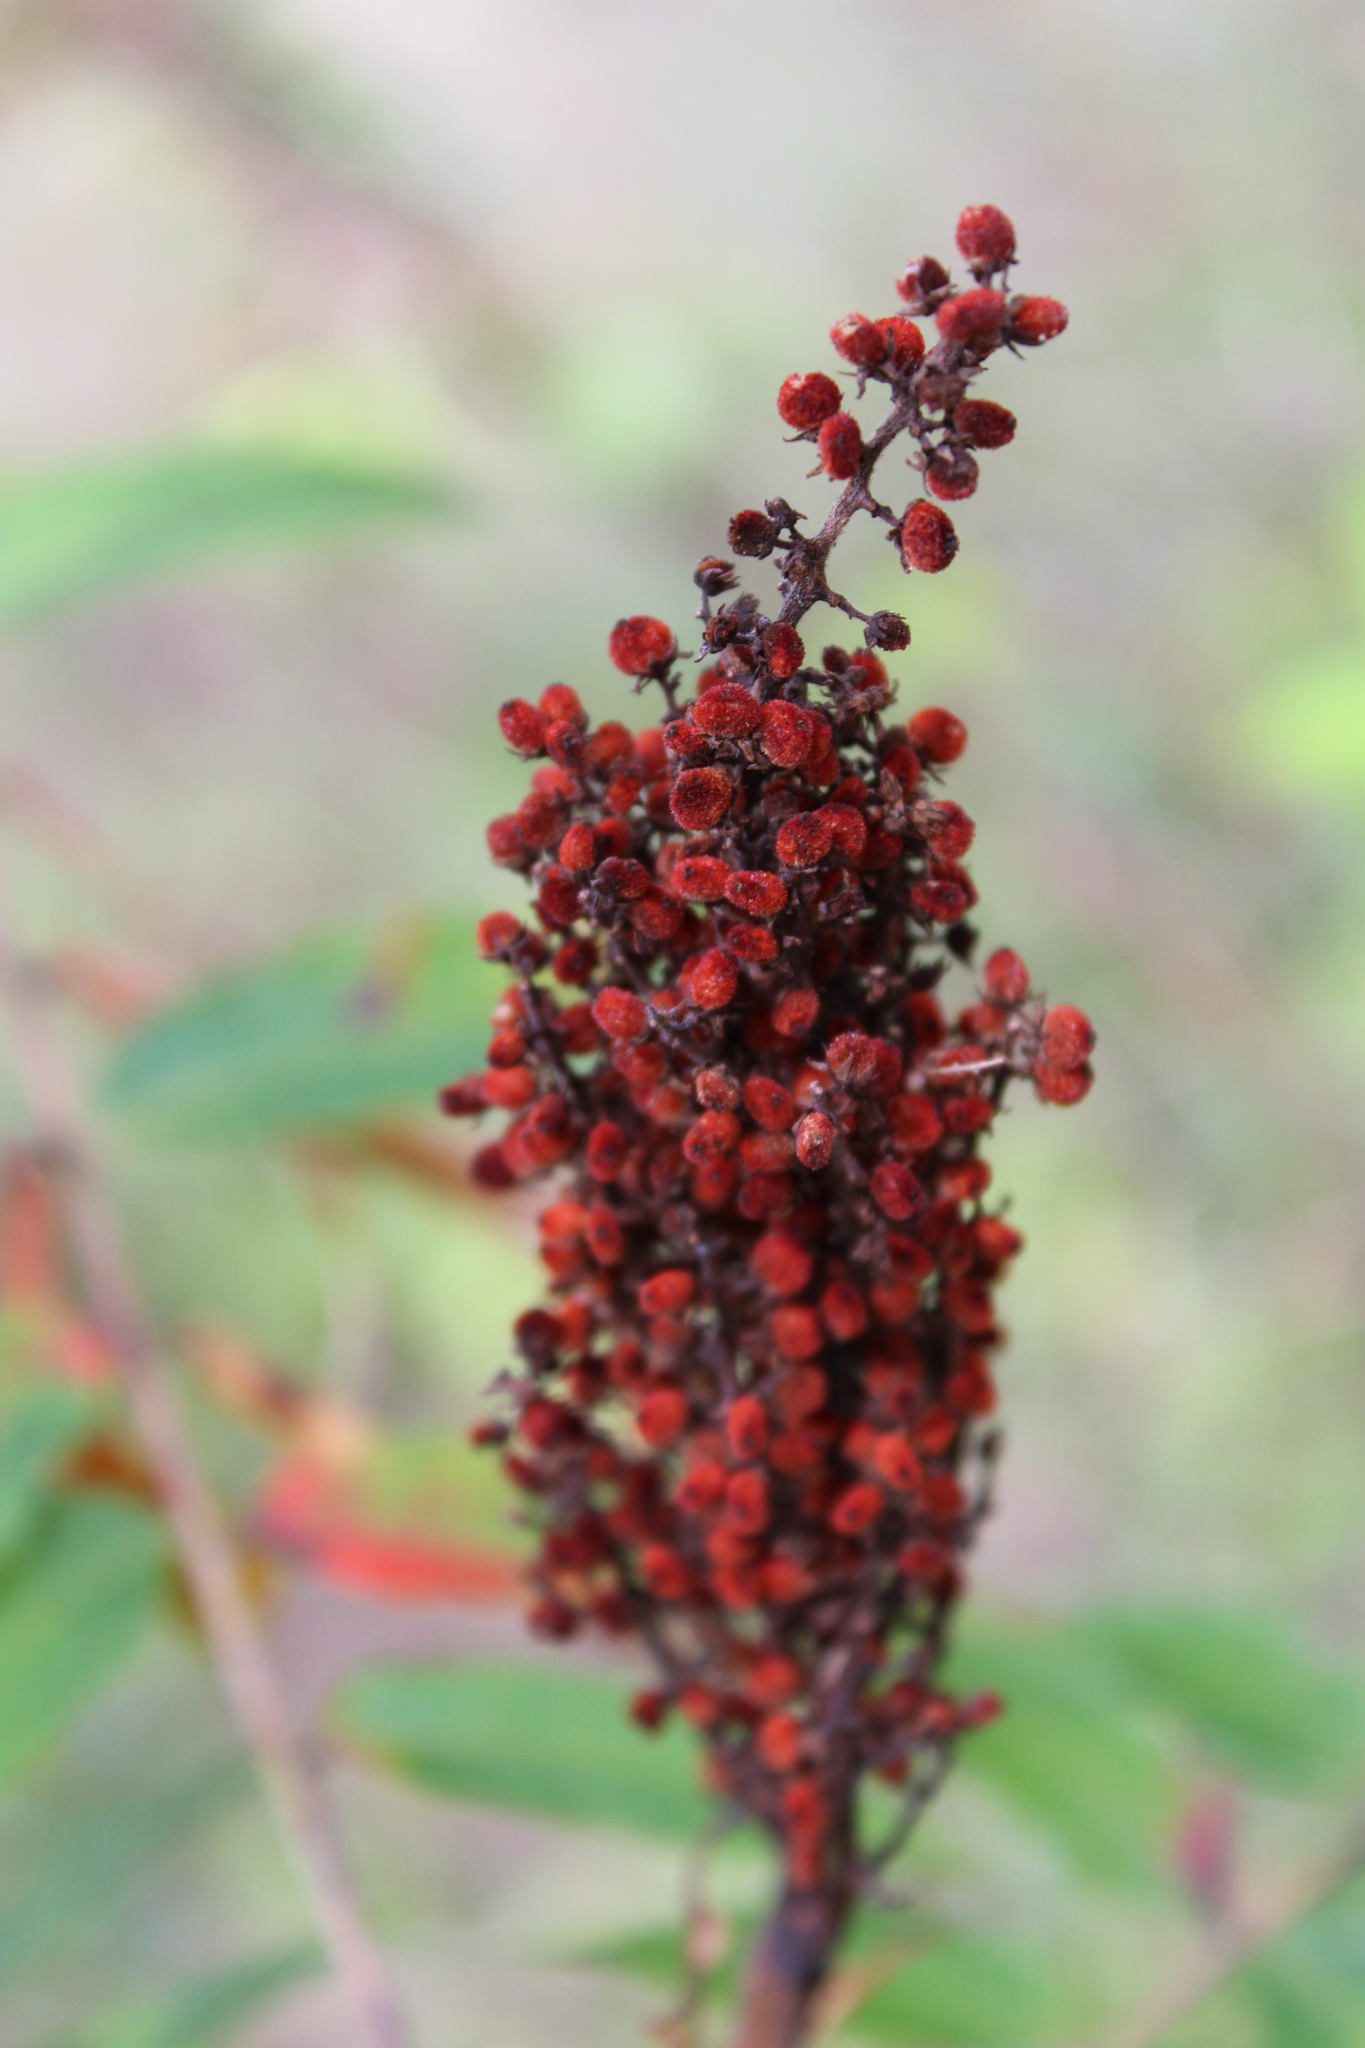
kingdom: Plantae
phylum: Tracheophyta
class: Magnoliopsida
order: Sapindales
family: Anacardiaceae
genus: Rhus
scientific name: Rhus glabra
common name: Scarlet sumac
